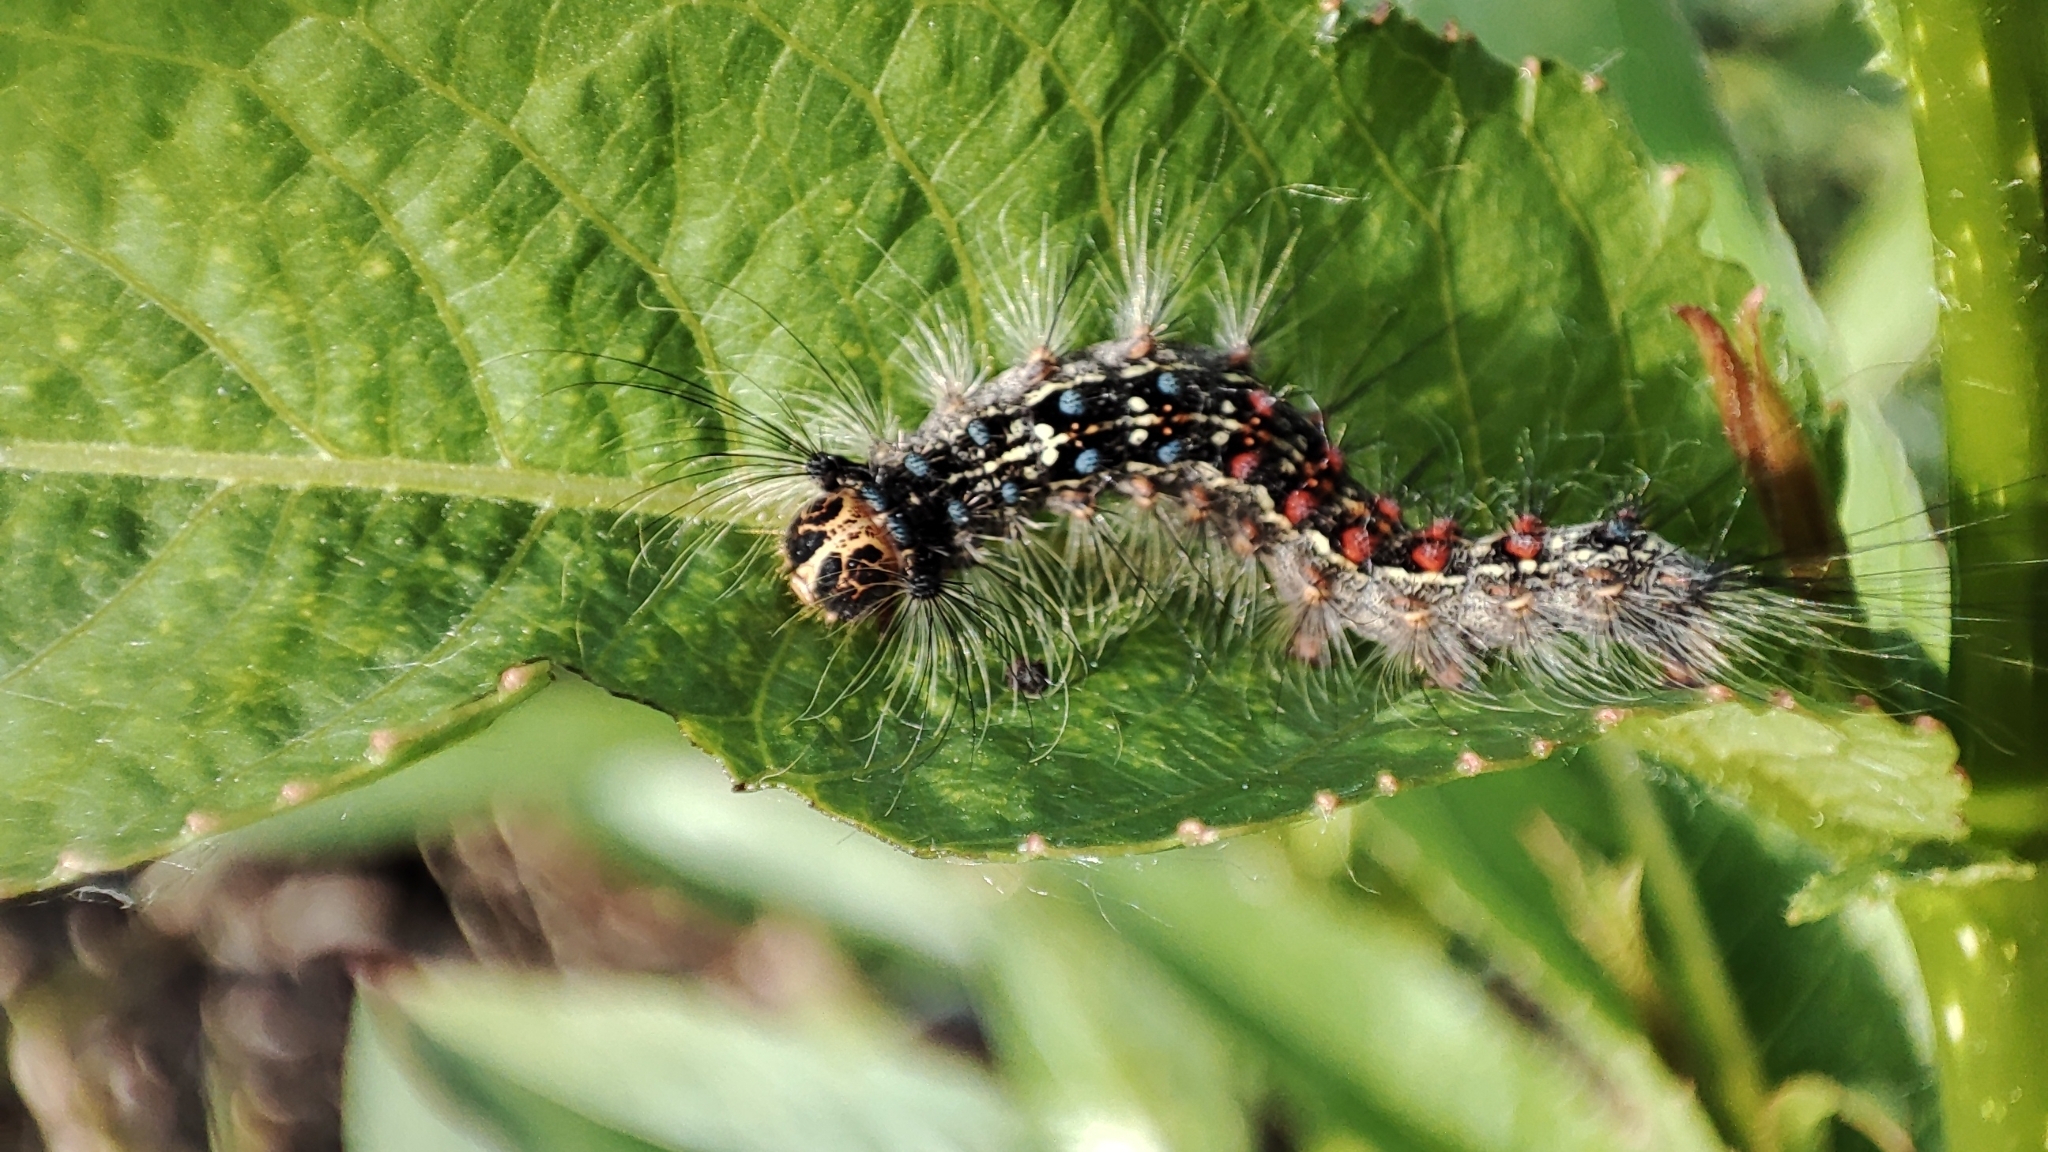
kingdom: Animalia
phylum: Arthropoda
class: Insecta
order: Lepidoptera
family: Erebidae
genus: Lymantria
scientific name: Lymantria dispar
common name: Gypsy moth
